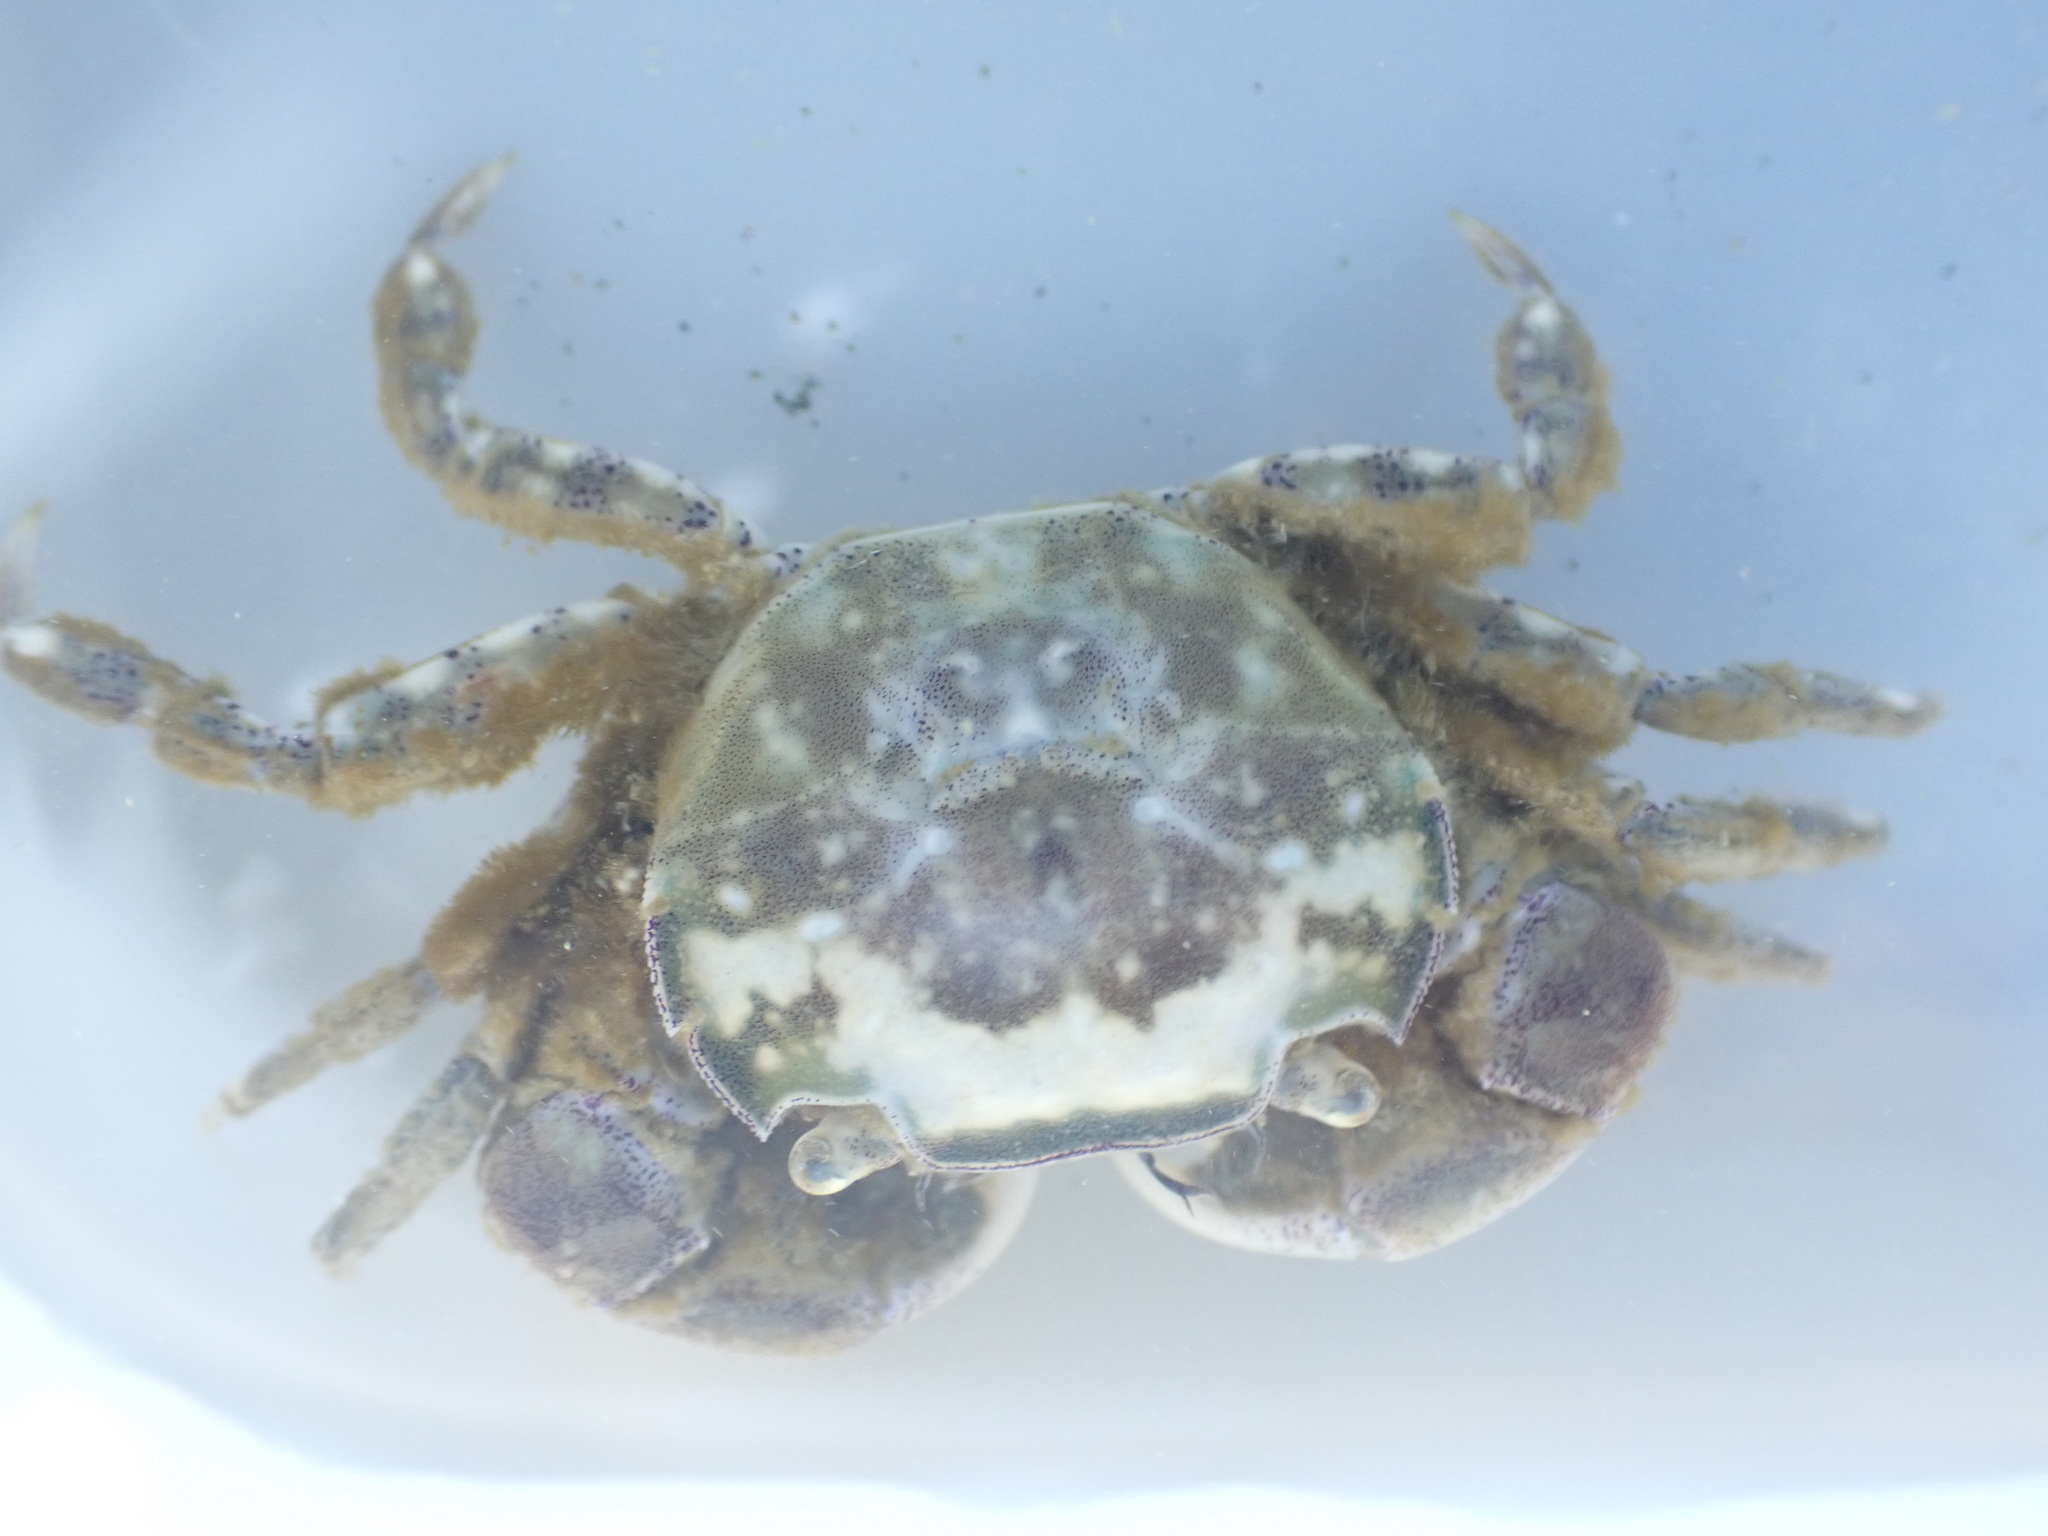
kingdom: Animalia
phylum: Arthropoda
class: Malacostraca
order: Decapoda
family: Varunidae
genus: Hemigrapsus
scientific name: Hemigrapsus crenulatus
